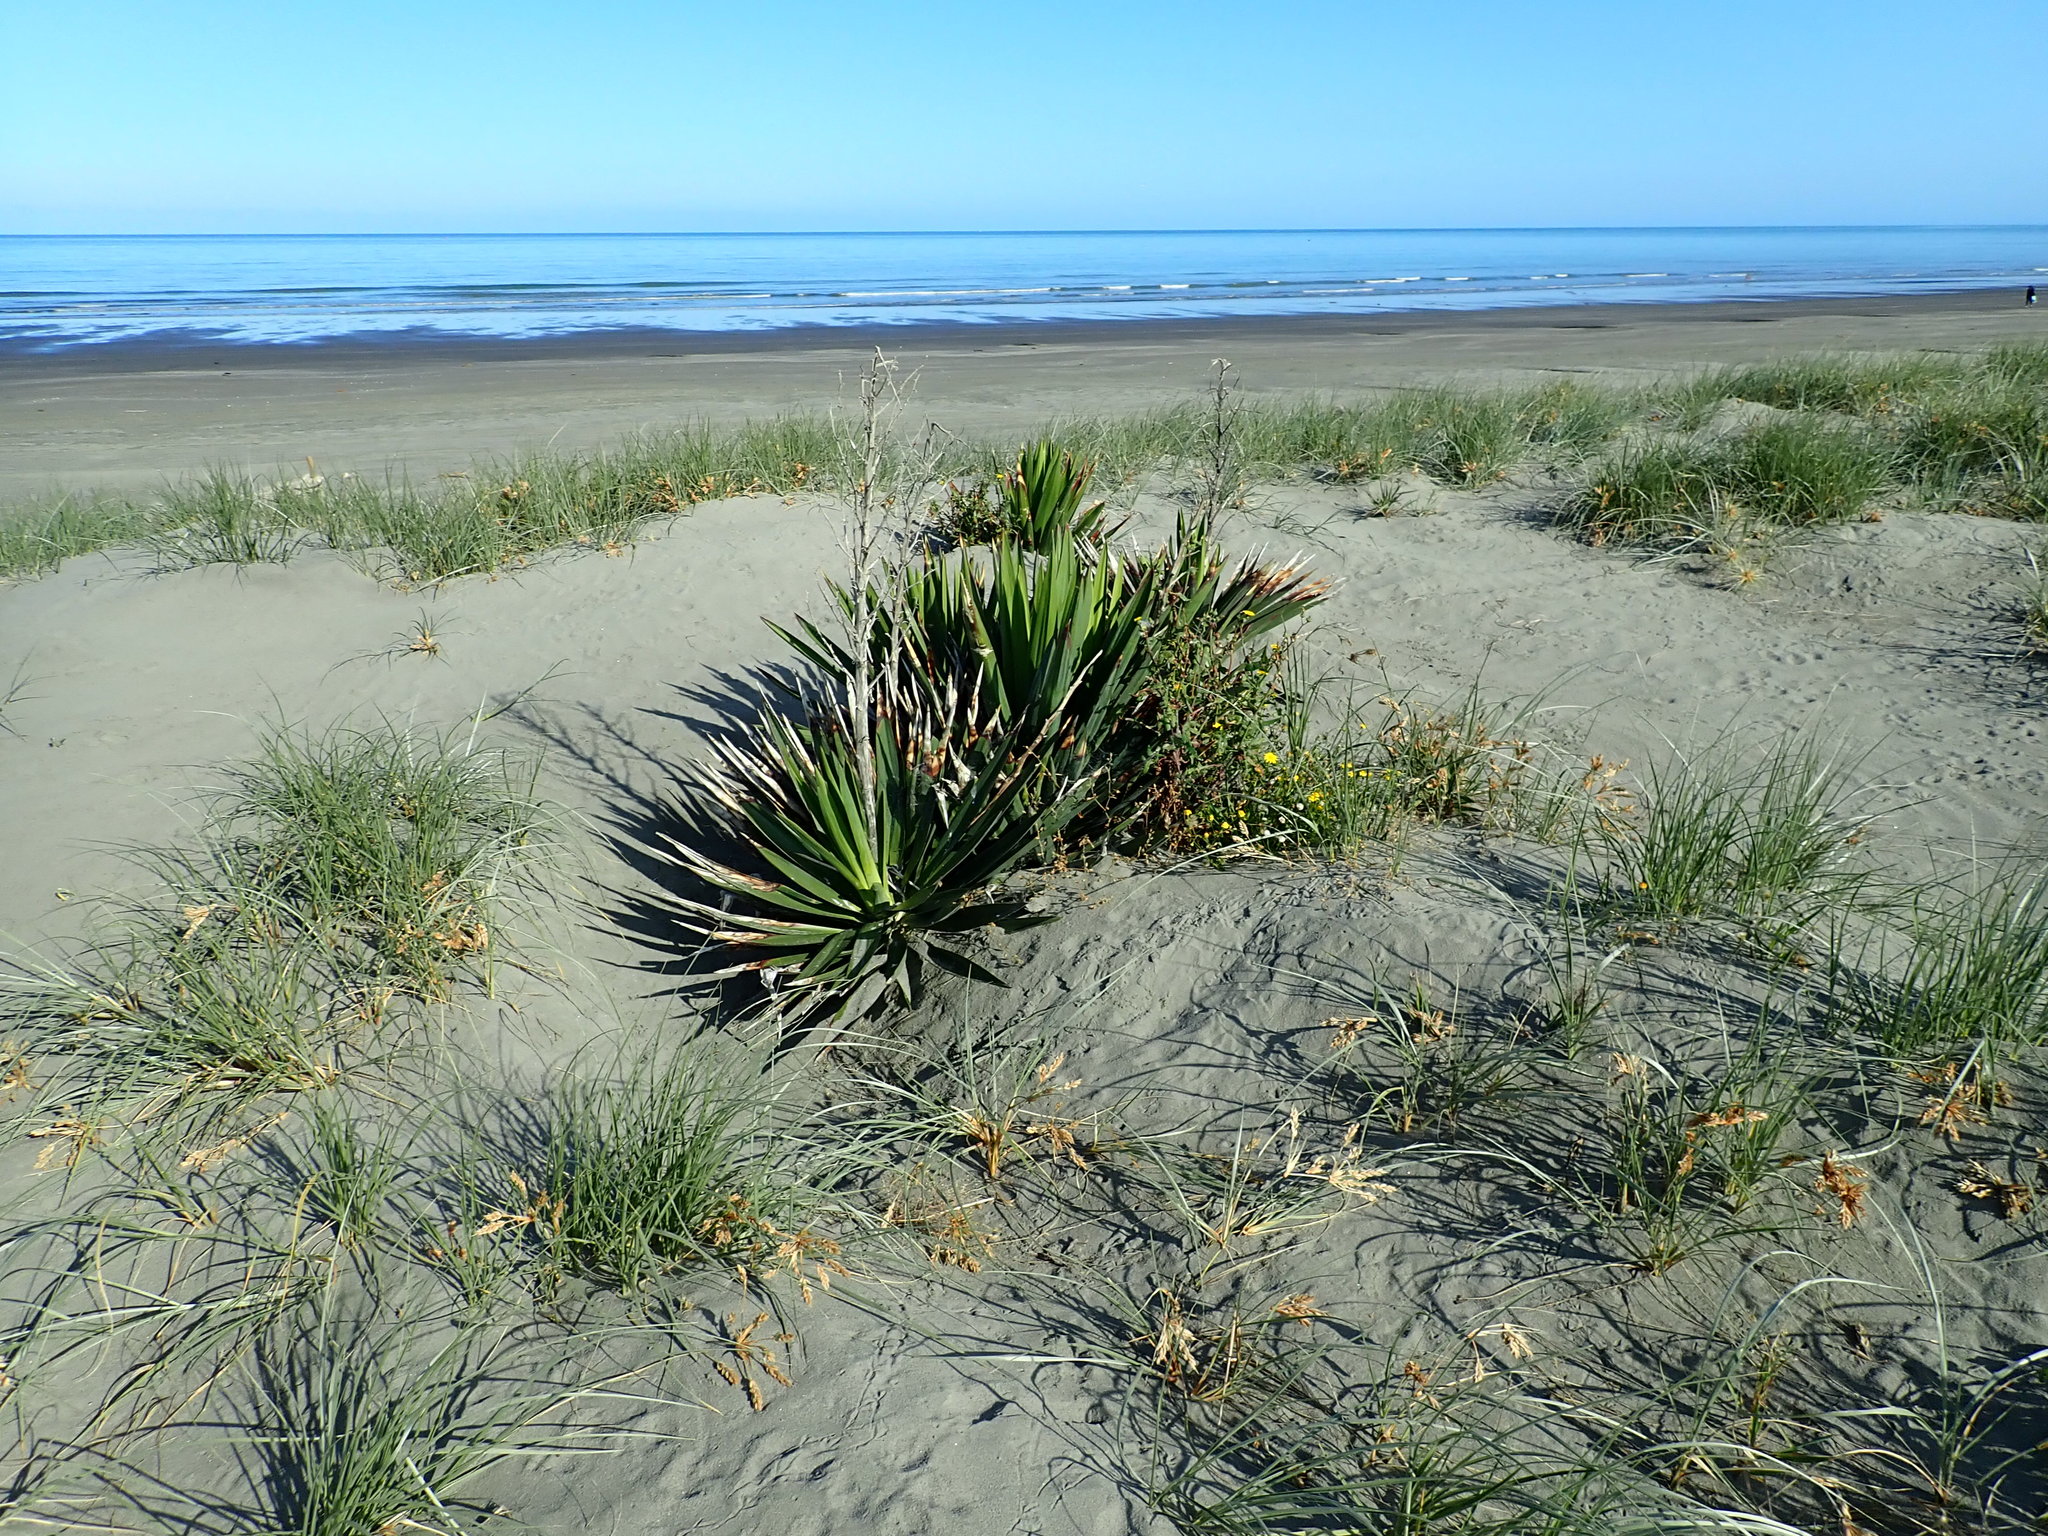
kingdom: Plantae
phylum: Tracheophyta
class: Liliopsida
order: Asparagales
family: Asparagaceae
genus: Yucca
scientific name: Yucca gloriosa
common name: Spanish-dagger
